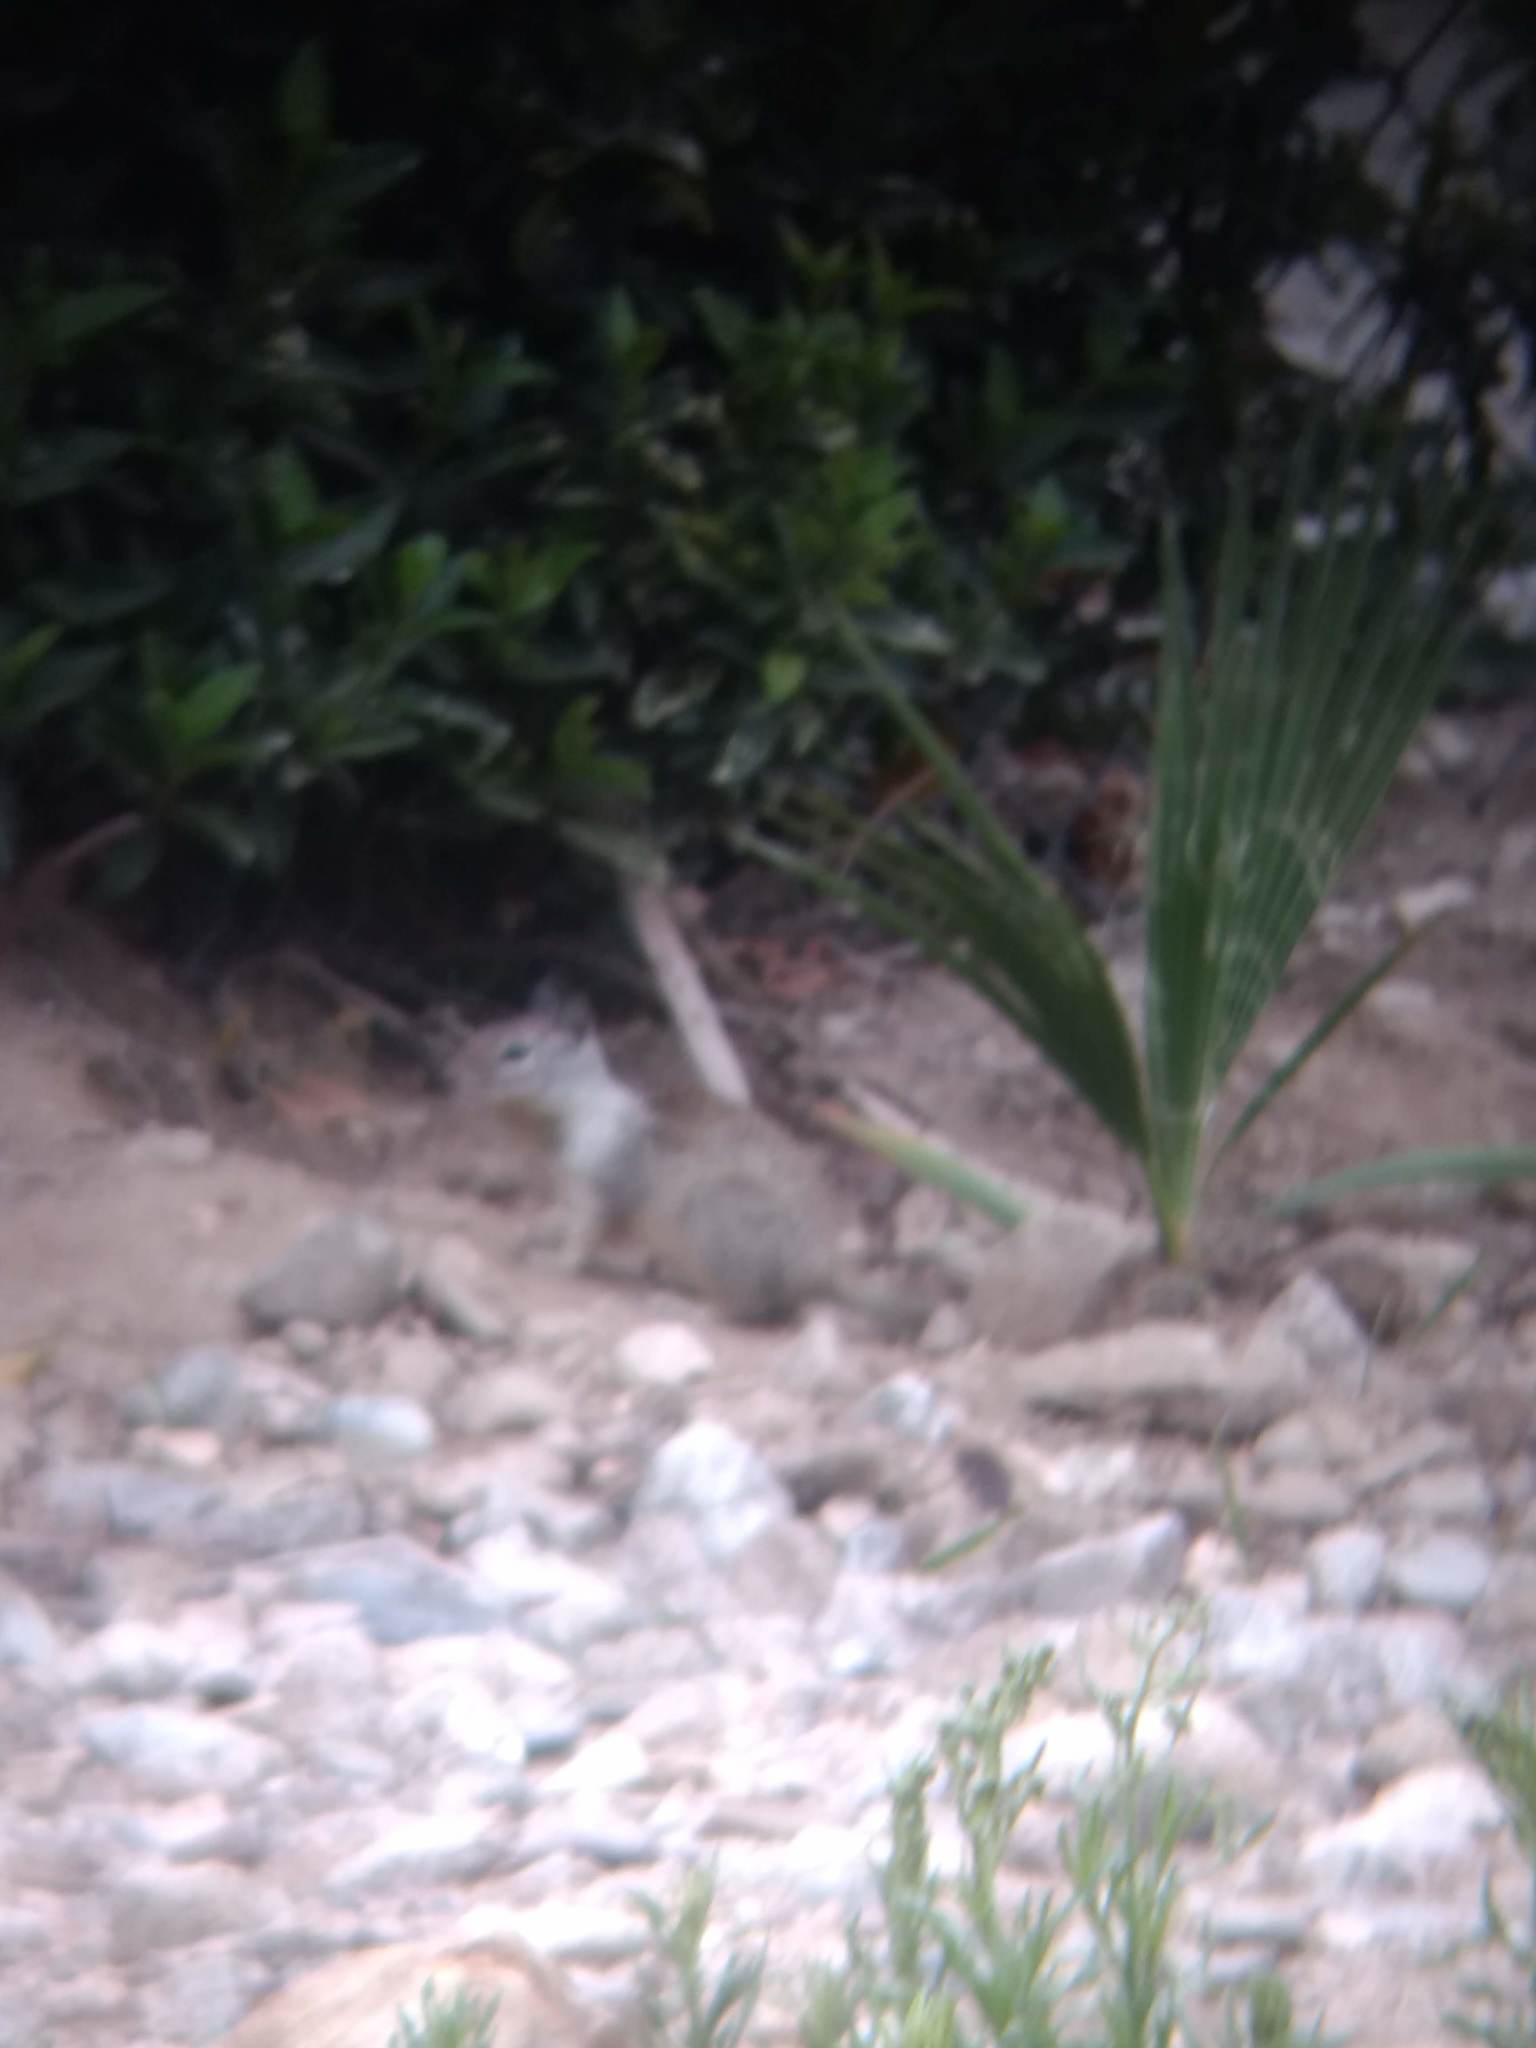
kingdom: Animalia
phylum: Chordata
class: Mammalia
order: Rodentia
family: Sciuridae
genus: Otospermophilus
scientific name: Otospermophilus beecheyi
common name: California ground squirrel
